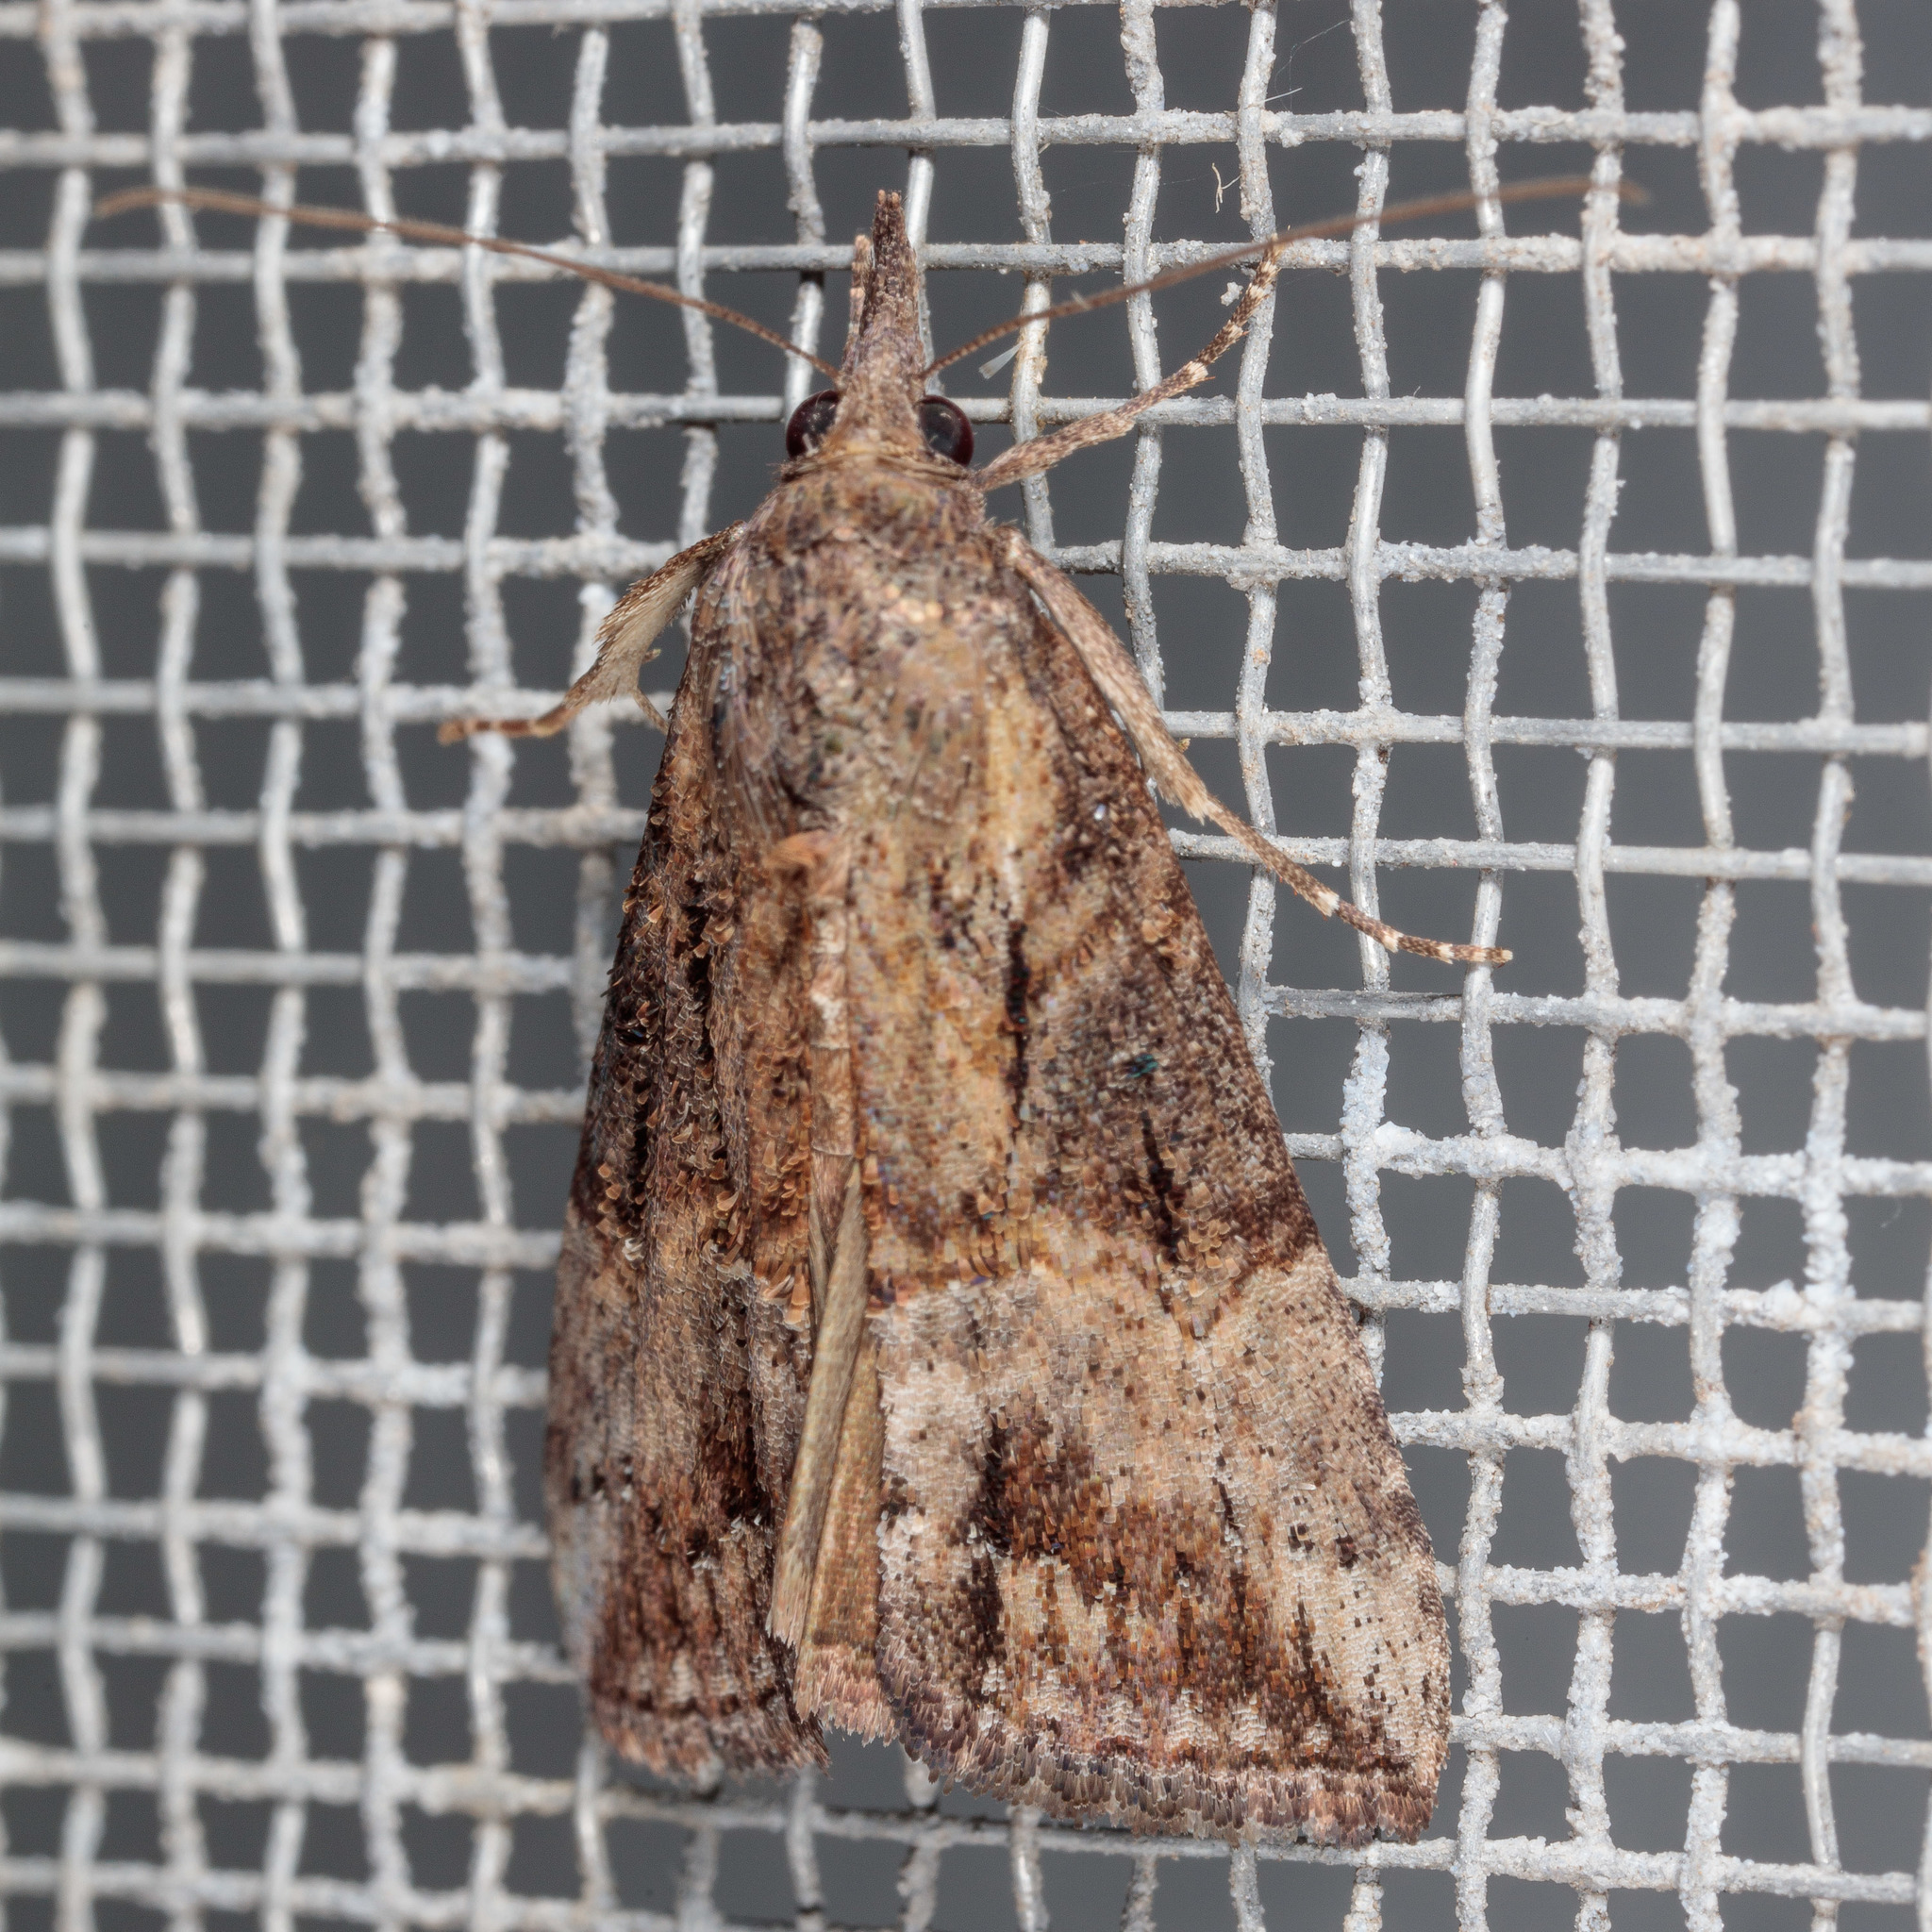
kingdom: Animalia
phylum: Arthropoda
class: Insecta
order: Lepidoptera
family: Erebidae
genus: Hypena
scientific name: Hypena scabra
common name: Green cloverworm
